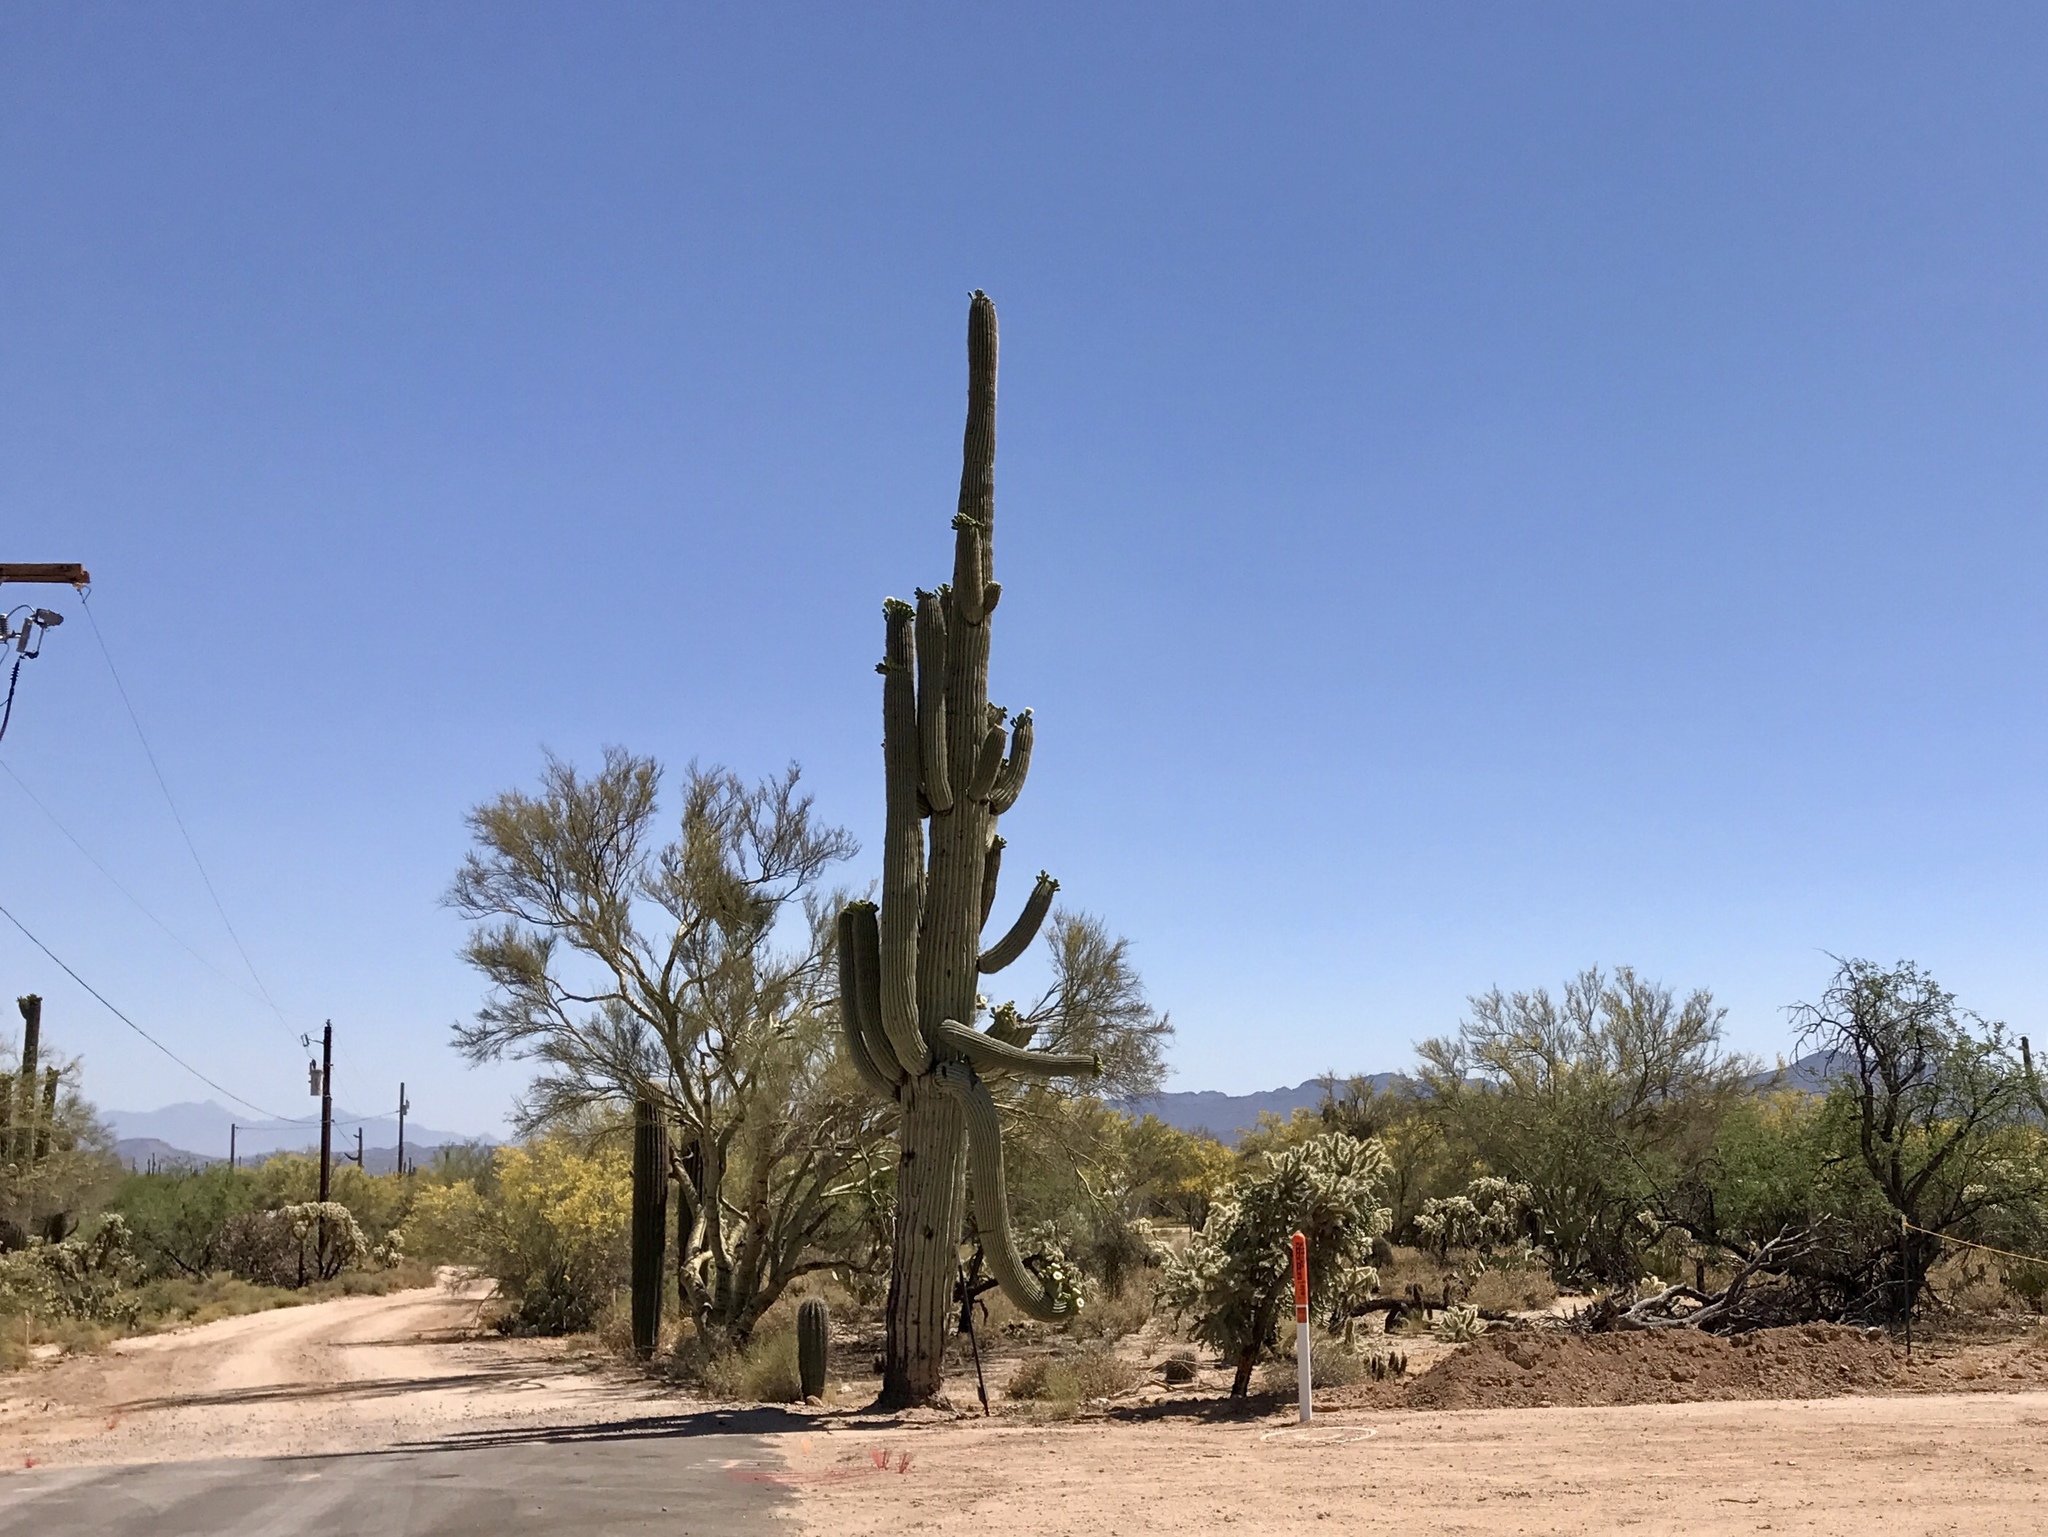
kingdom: Plantae
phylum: Tracheophyta
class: Magnoliopsida
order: Caryophyllales
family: Cactaceae
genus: Carnegiea
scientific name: Carnegiea gigantea
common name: Saguaro
